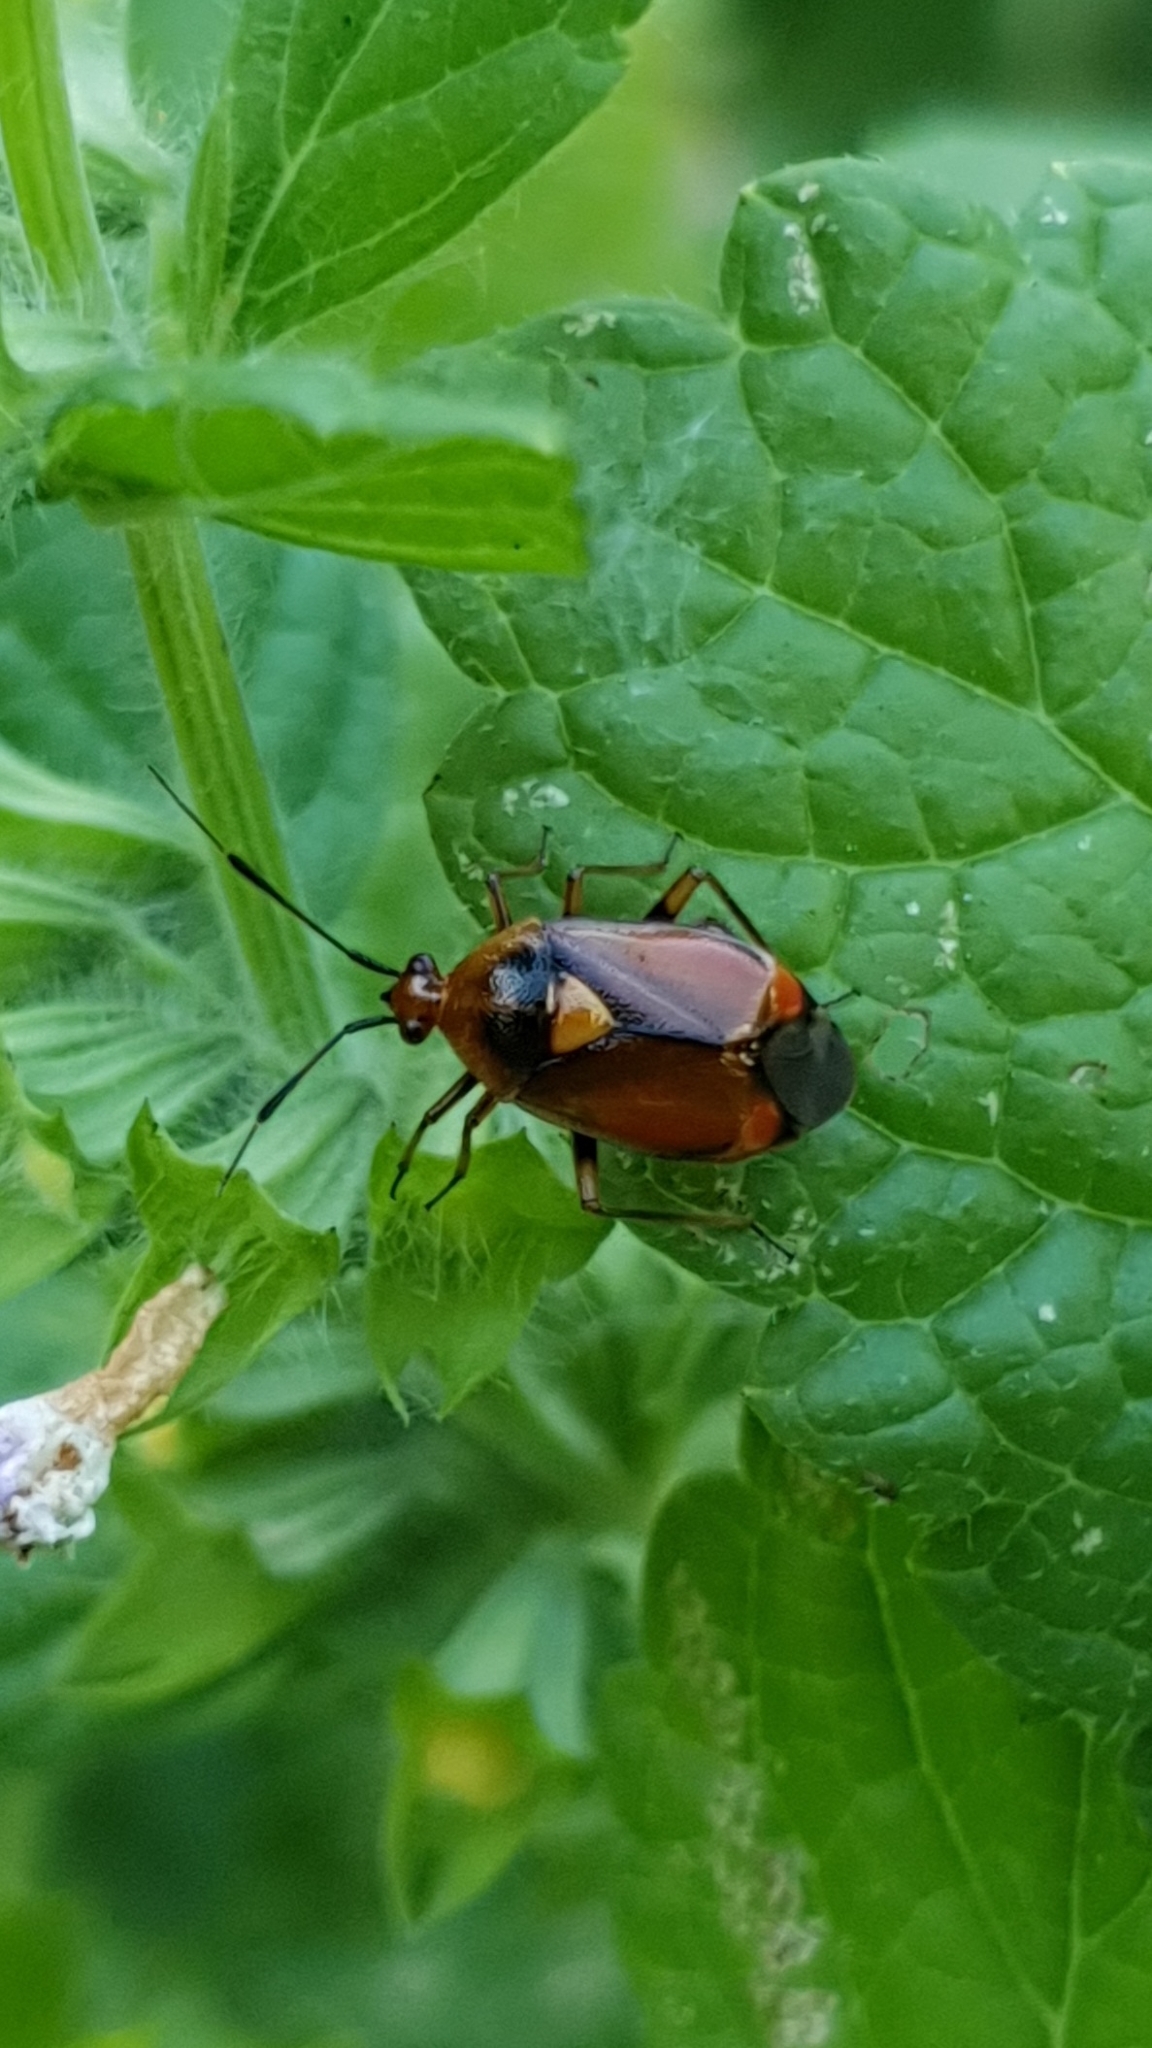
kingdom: Animalia
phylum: Arthropoda
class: Insecta
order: Hemiptera
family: Miridae
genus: Deraeocoris
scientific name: Deraeocoris ruber
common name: Plant bug
